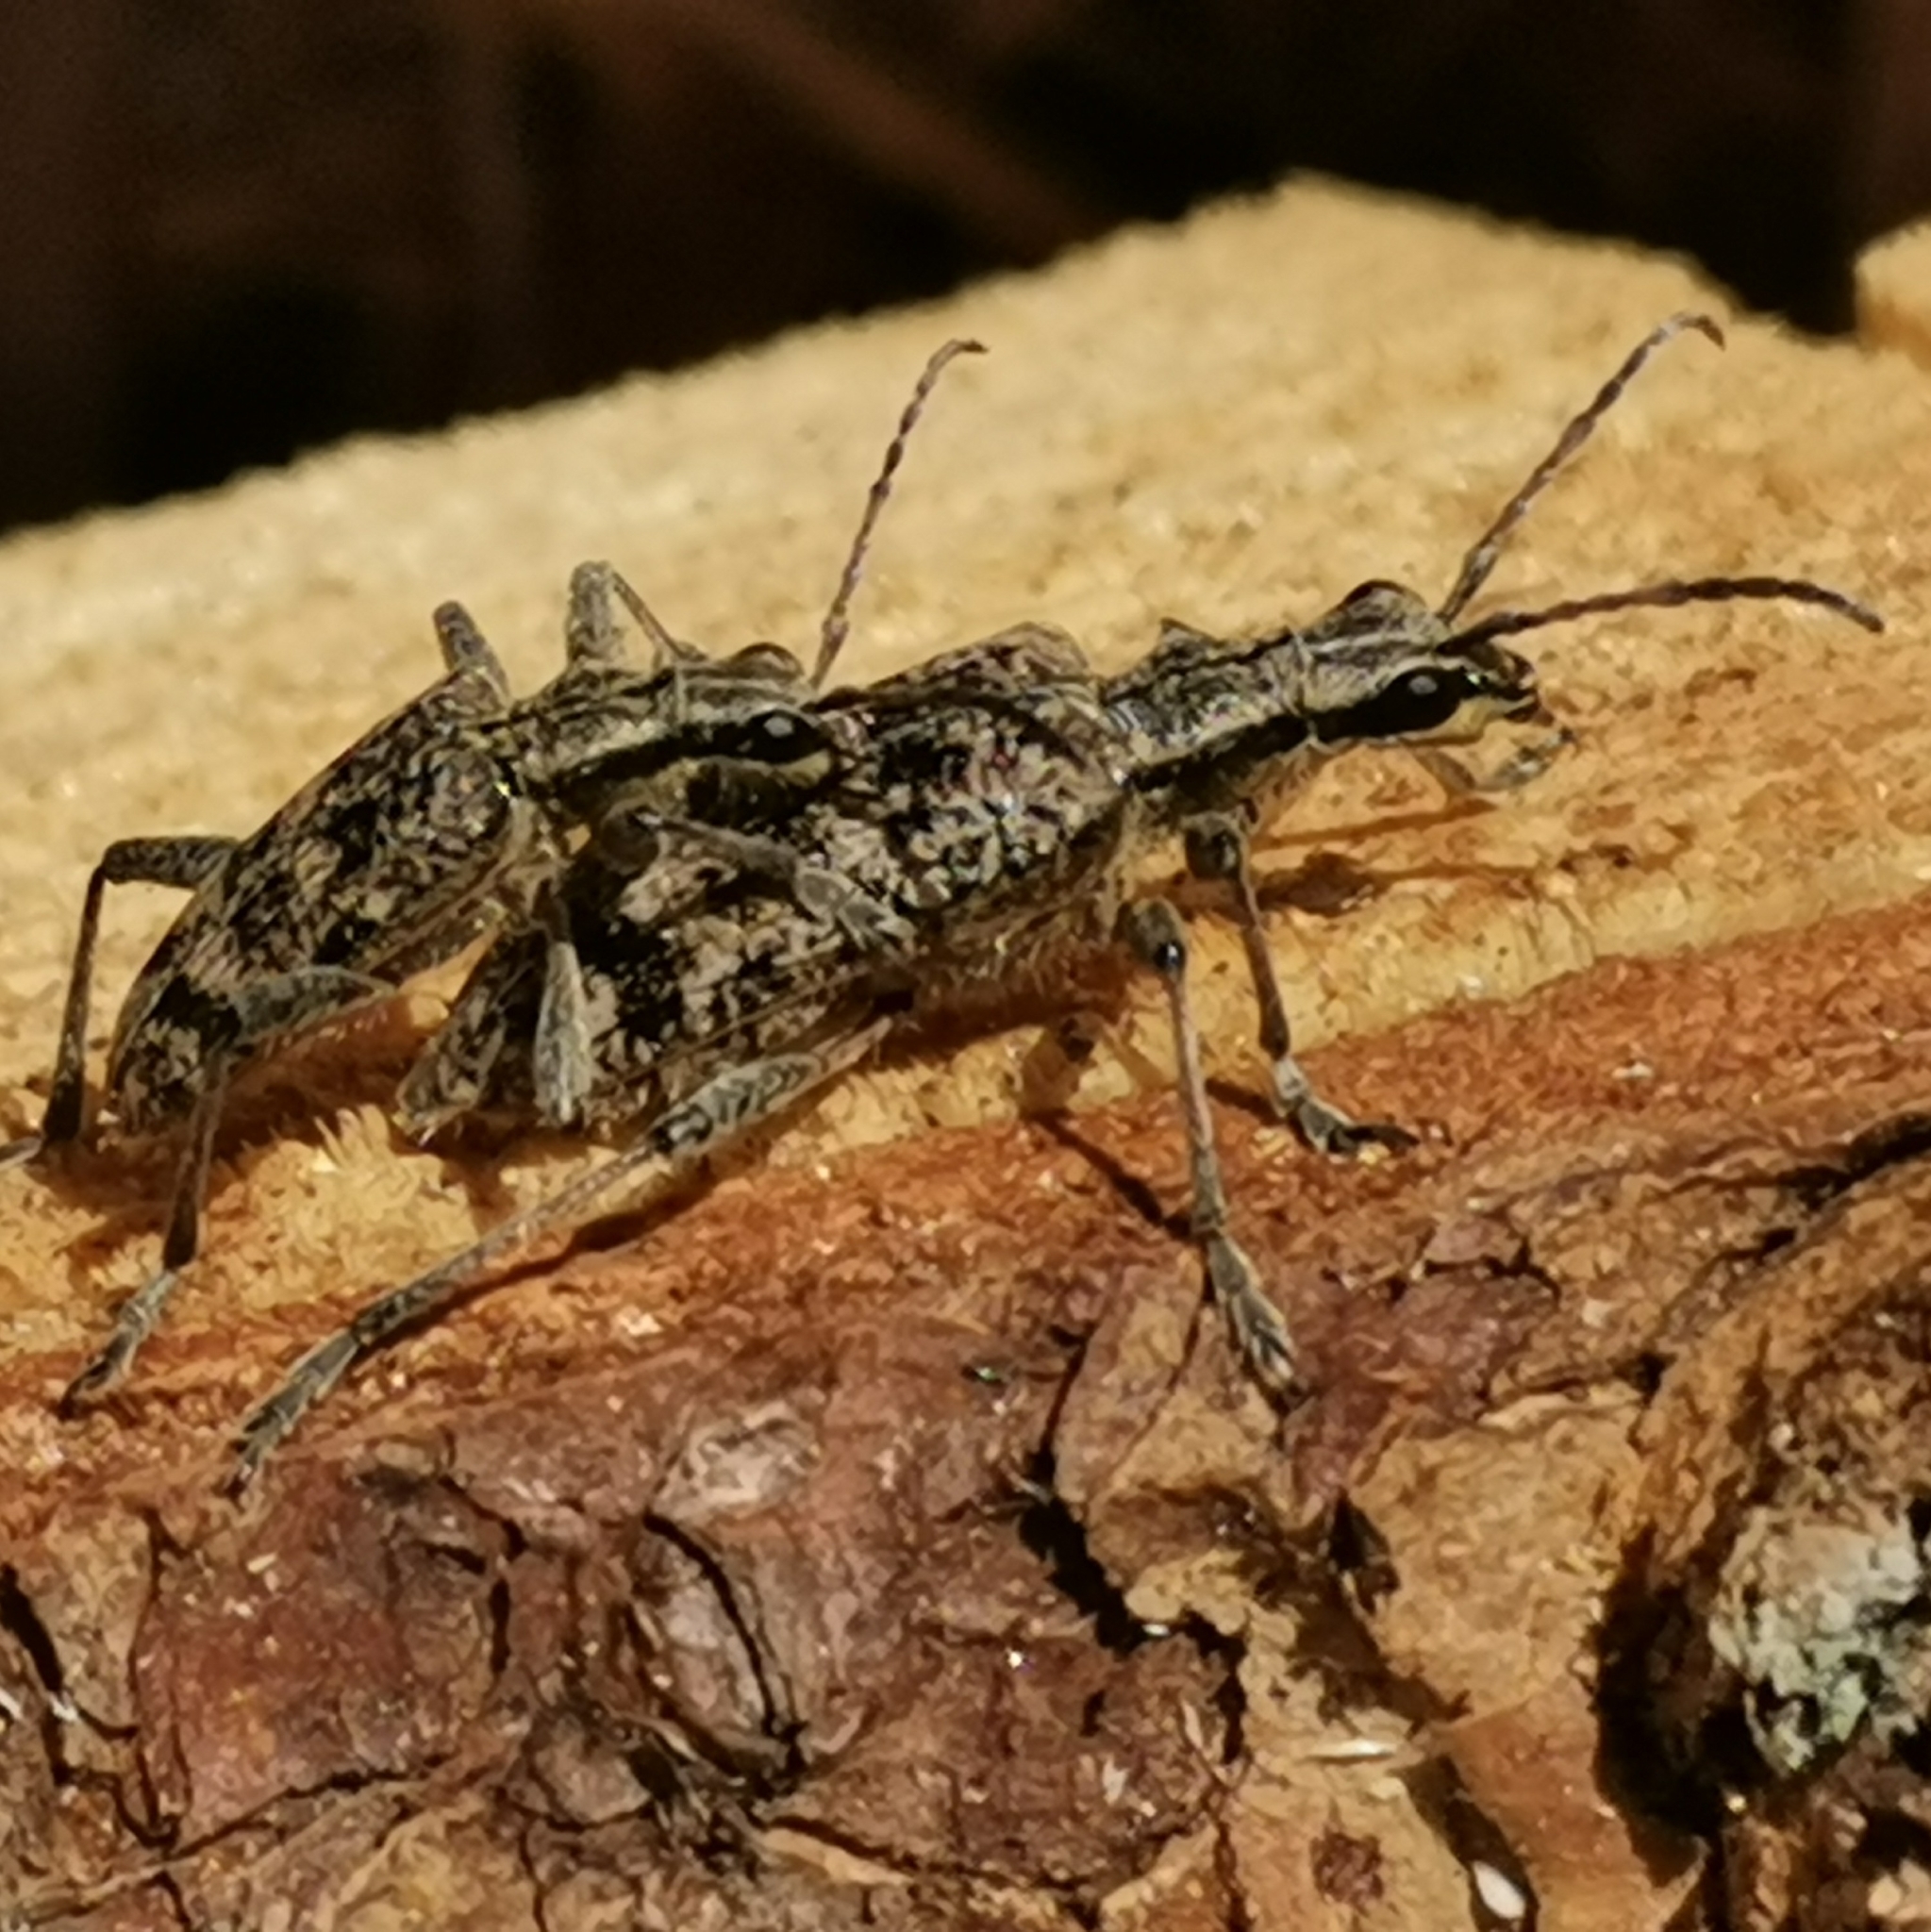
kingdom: Animalia
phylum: Arthropoda
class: Insecta
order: Coleoptera
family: Cerambycidae
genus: Rhagium
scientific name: Rhagium inquisitor
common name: Ribbed pine borer
